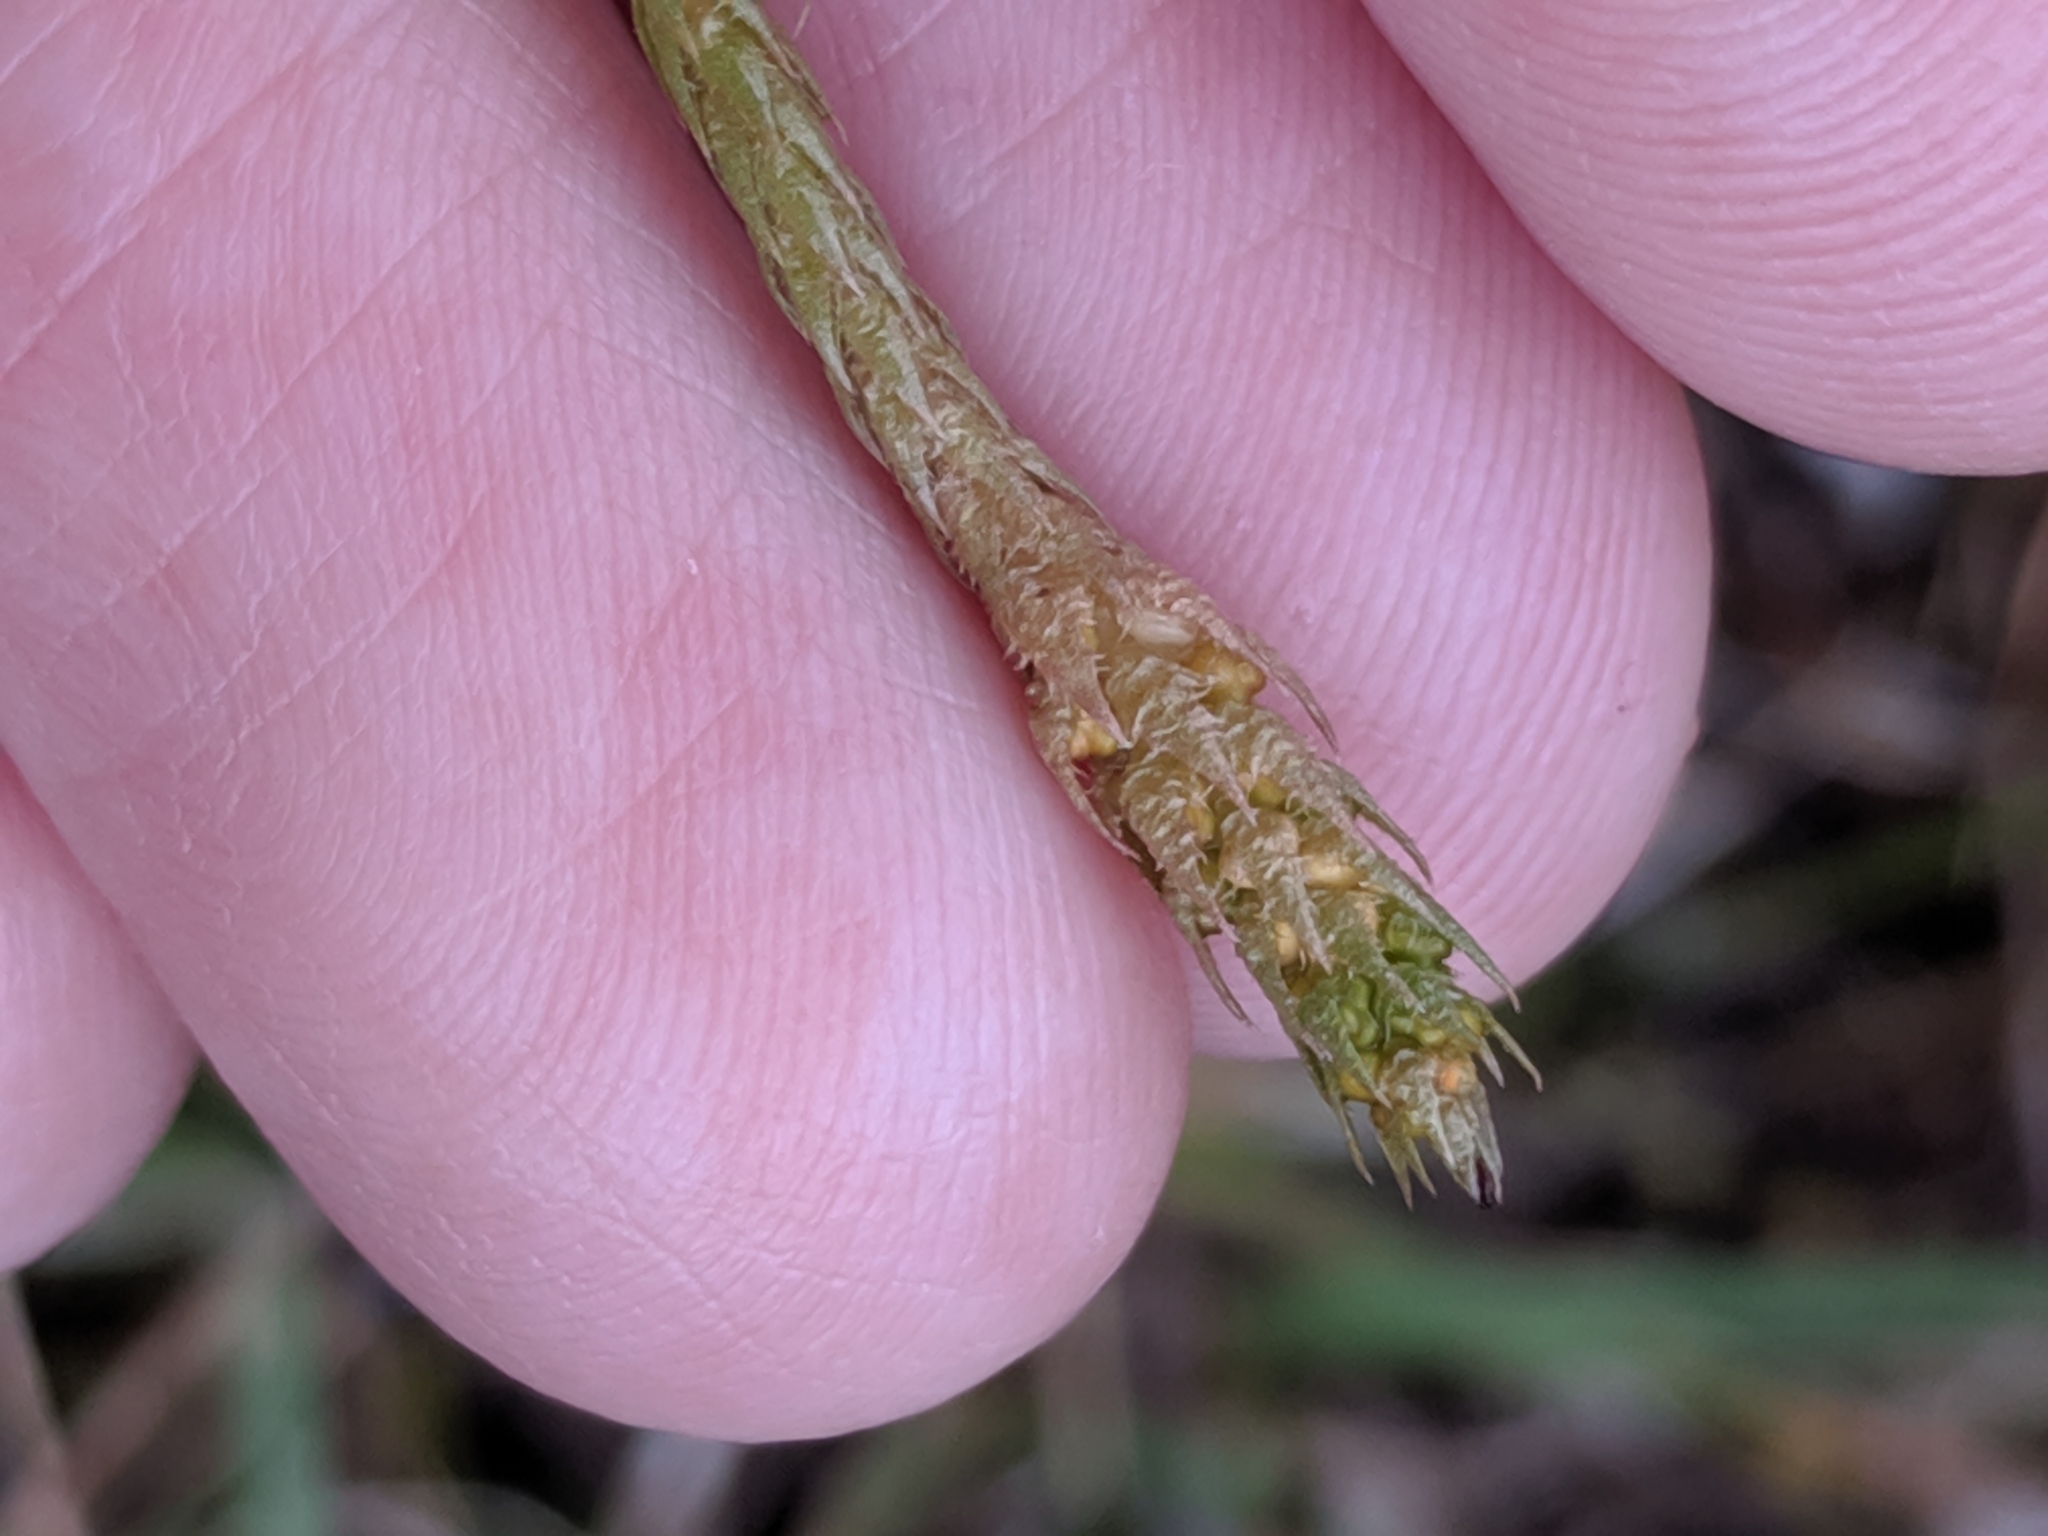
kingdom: Plantae
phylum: Tracheophyta
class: Lycopodiopsida
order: Selaginellales
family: Selaginellaceae
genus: Selaginella
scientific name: Selaginella selaginoides
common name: Prickly mountain-moss
